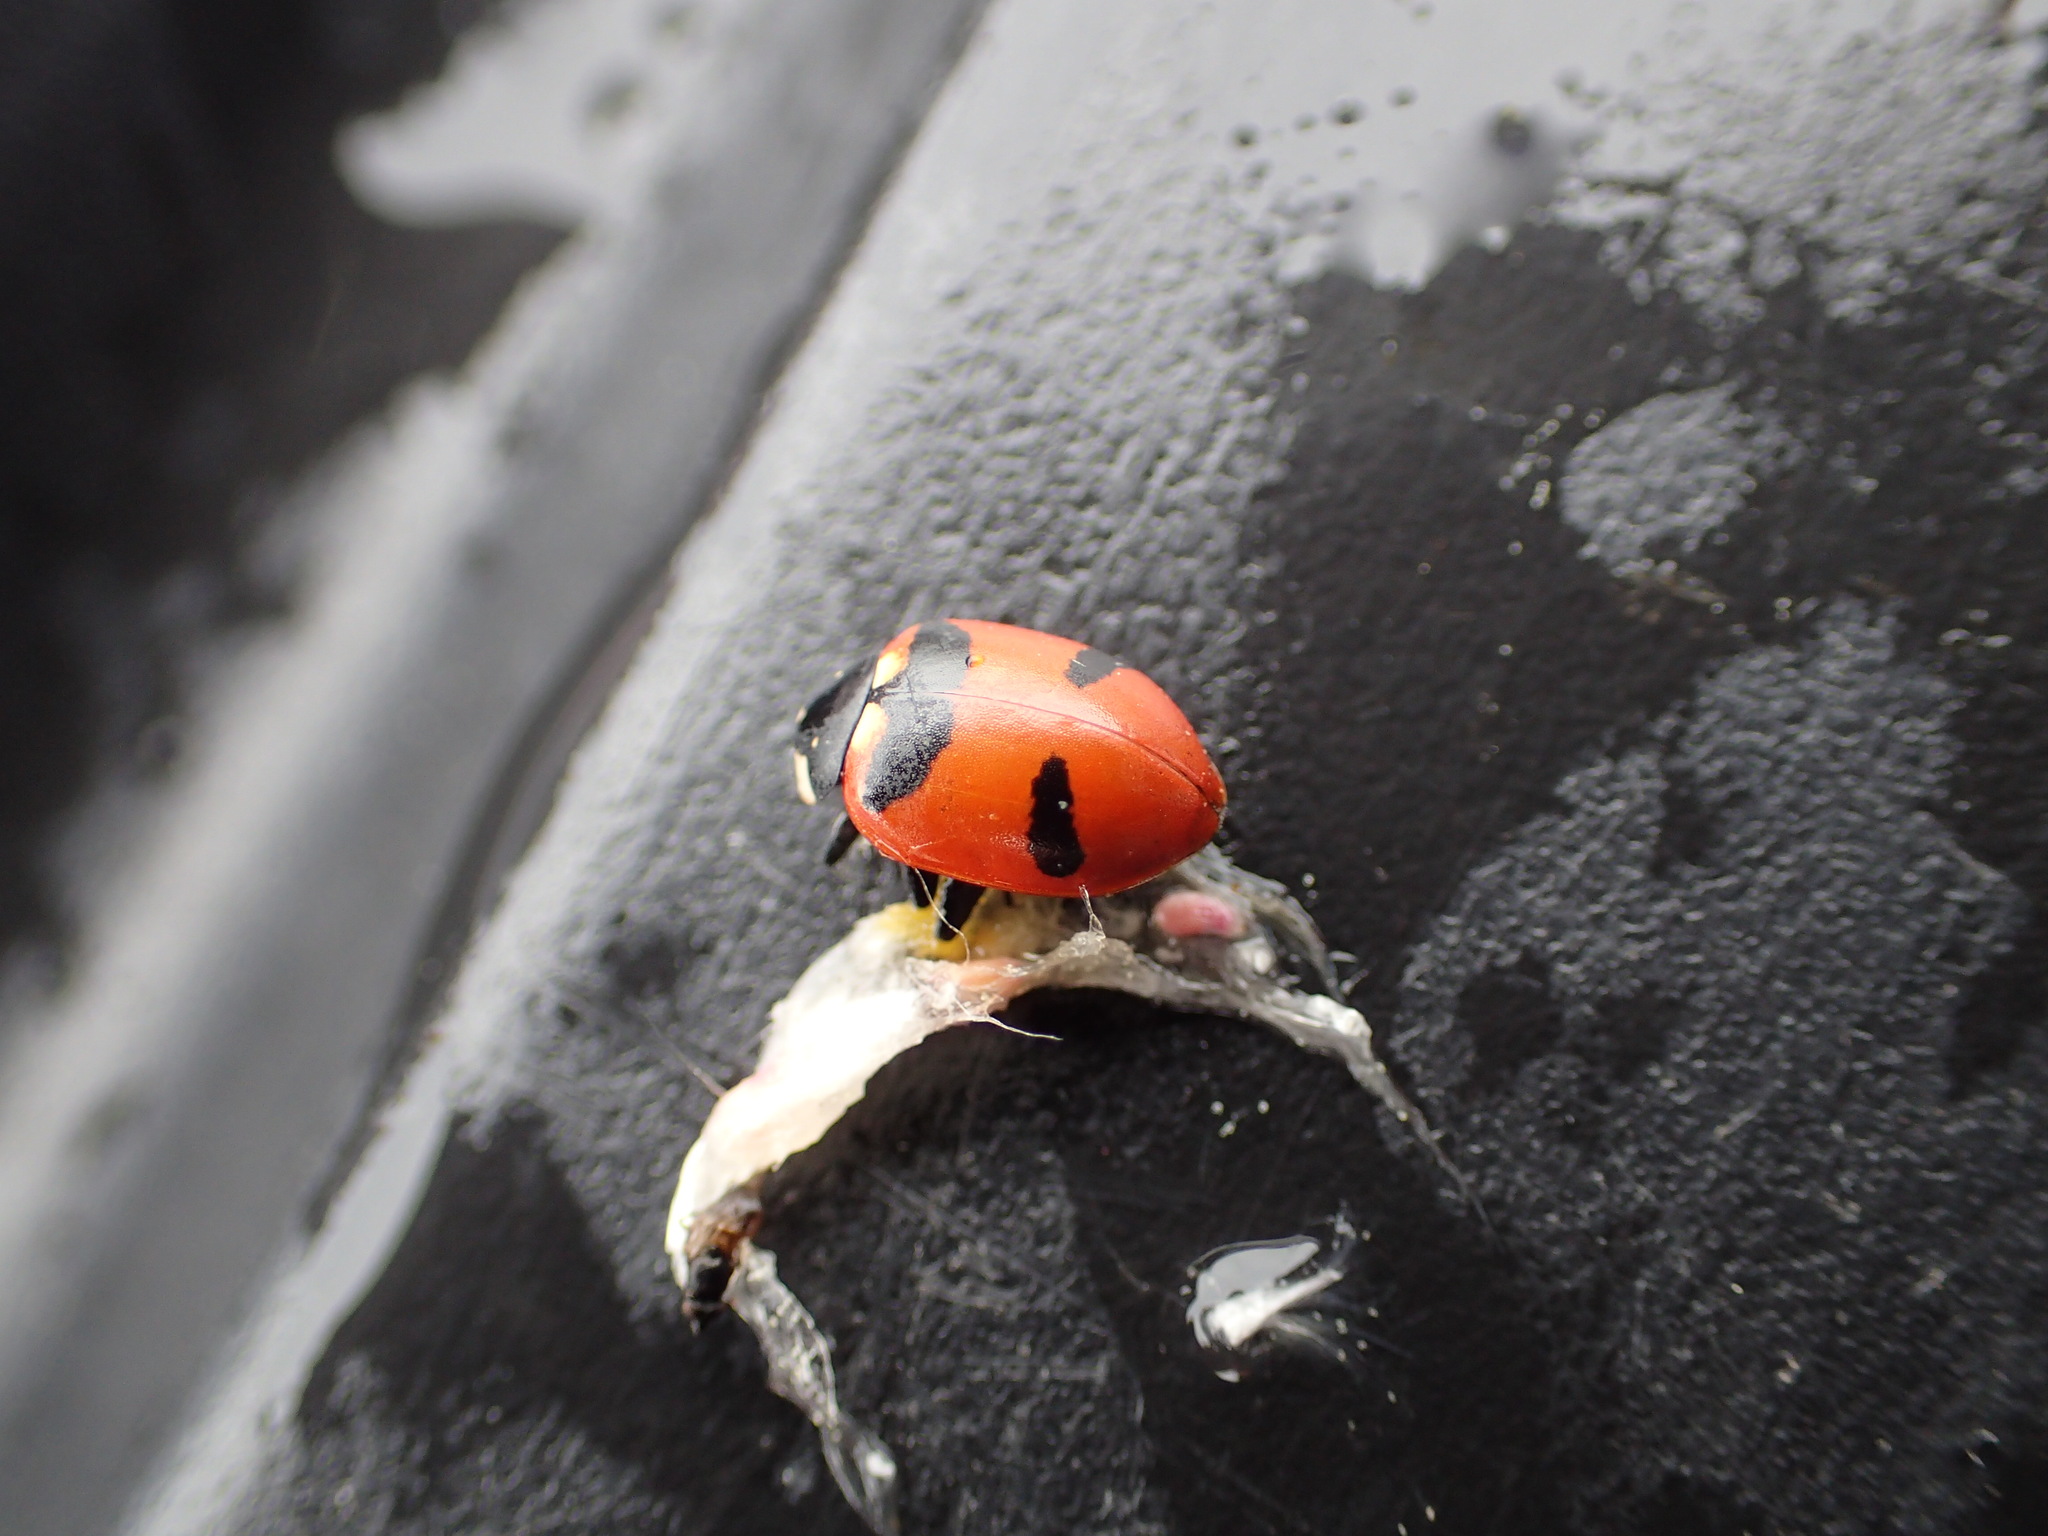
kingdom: Animalia
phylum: Arthropoda
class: Insecta
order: Coleoptera
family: Coccinellidae
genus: Hippodamia
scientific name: Hippodamia quinquesignata
